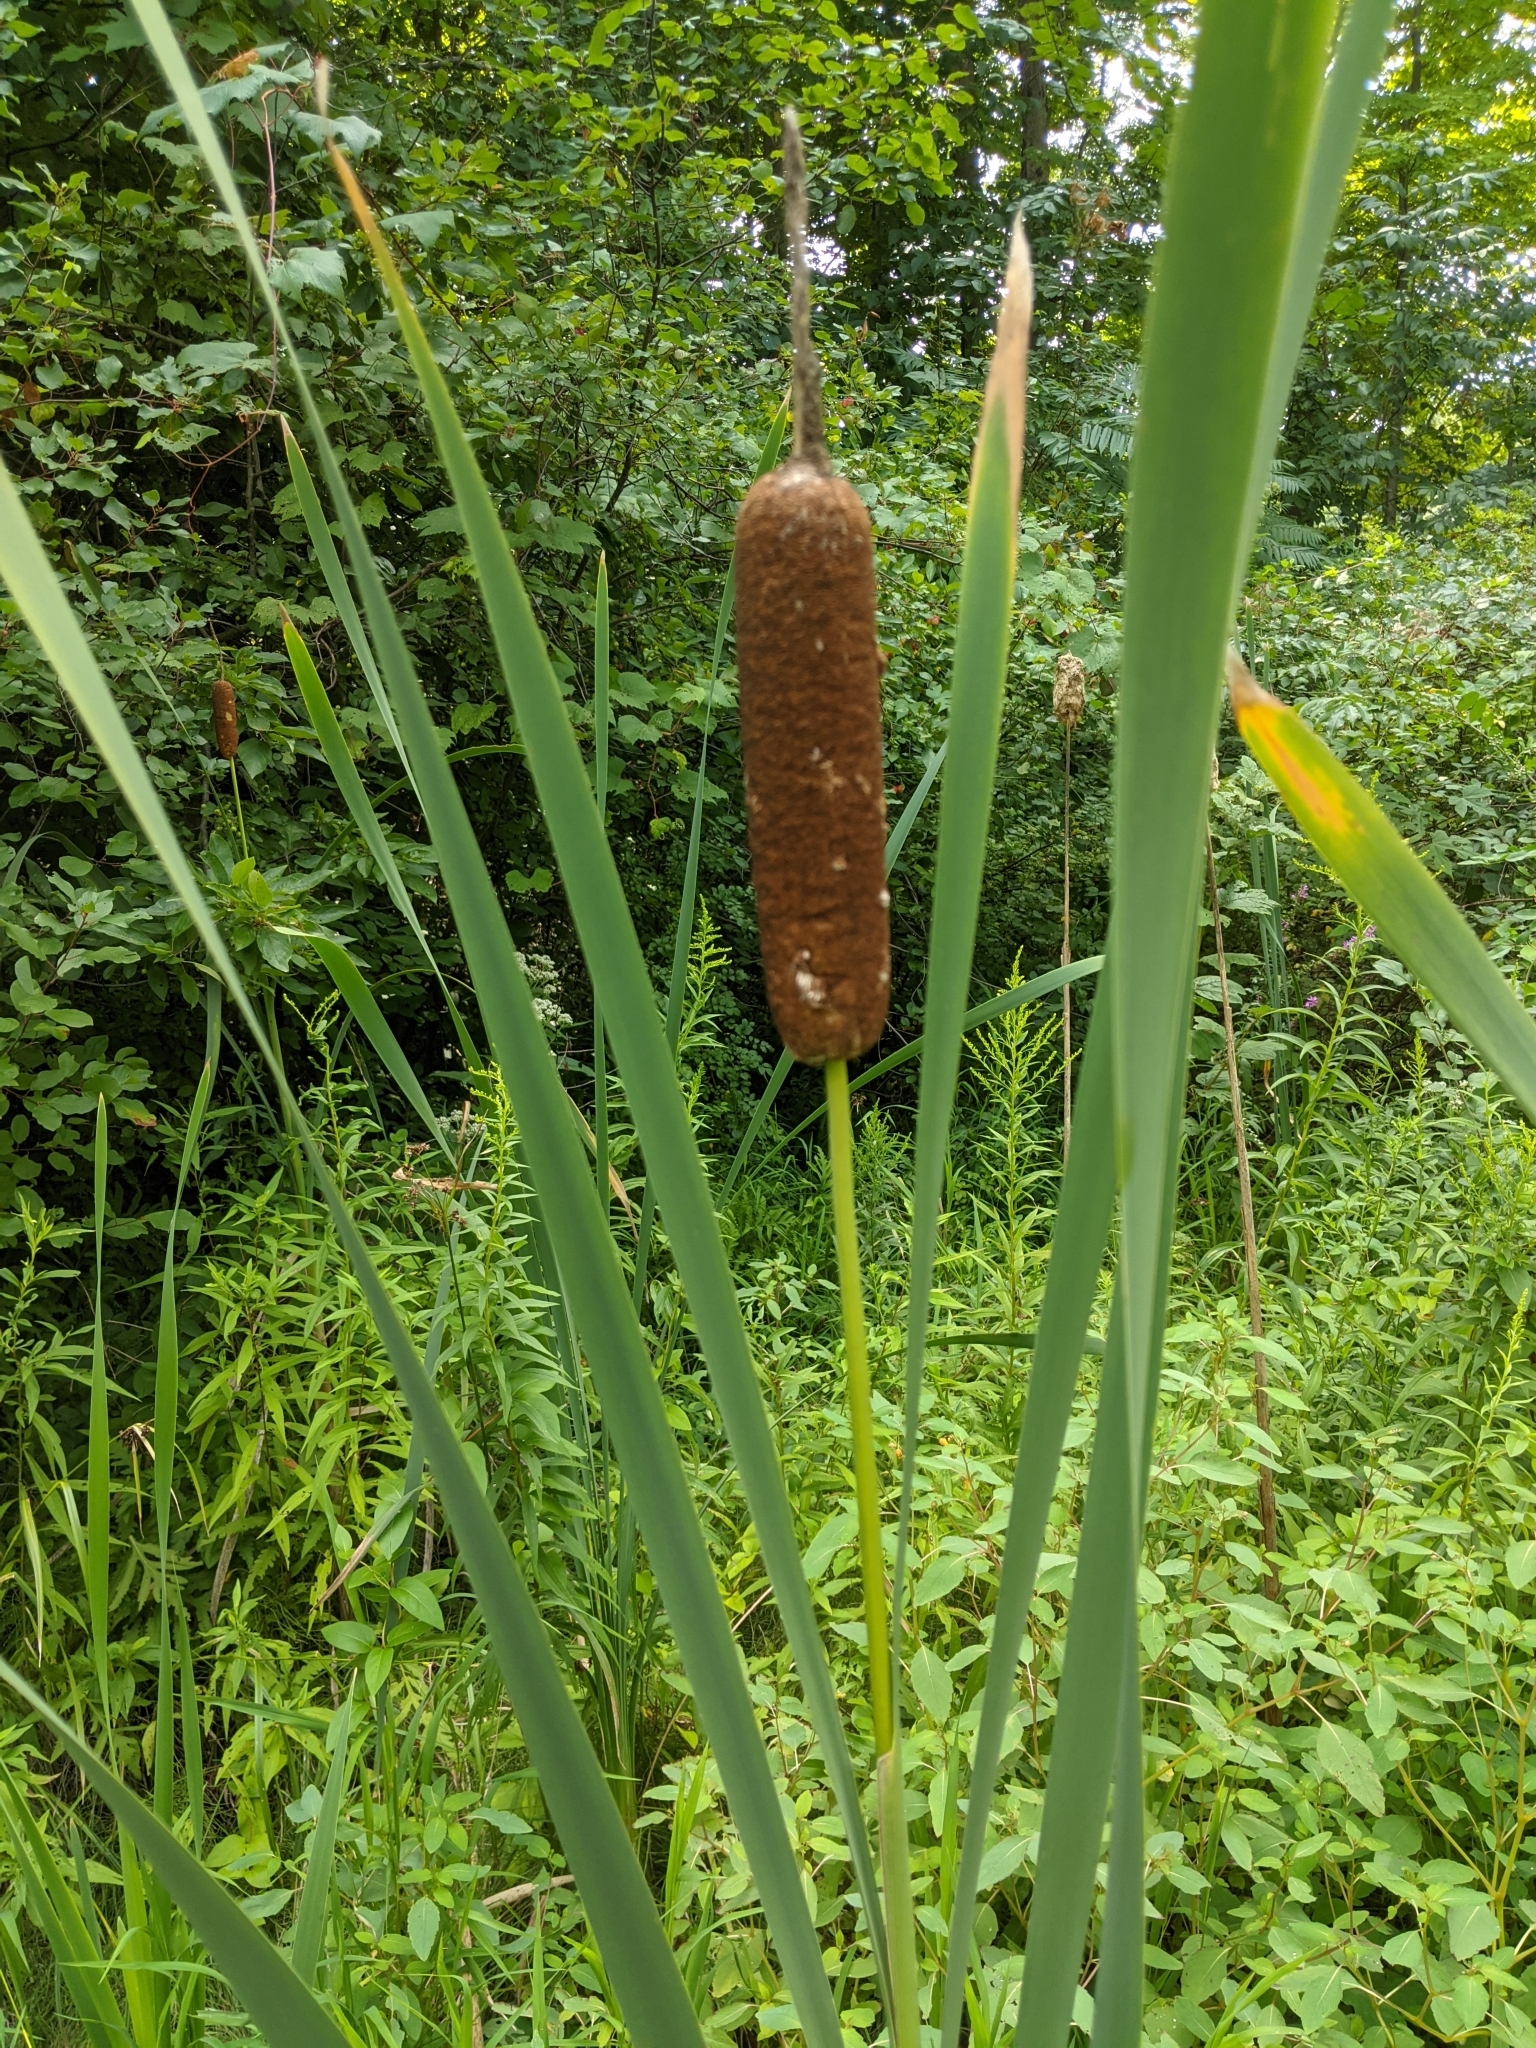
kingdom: Plantae
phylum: Tracheophyta
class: Liliopsida
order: Poales
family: Typhaceae
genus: Typha
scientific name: Typha latifolia
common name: Broadleaf cattail
